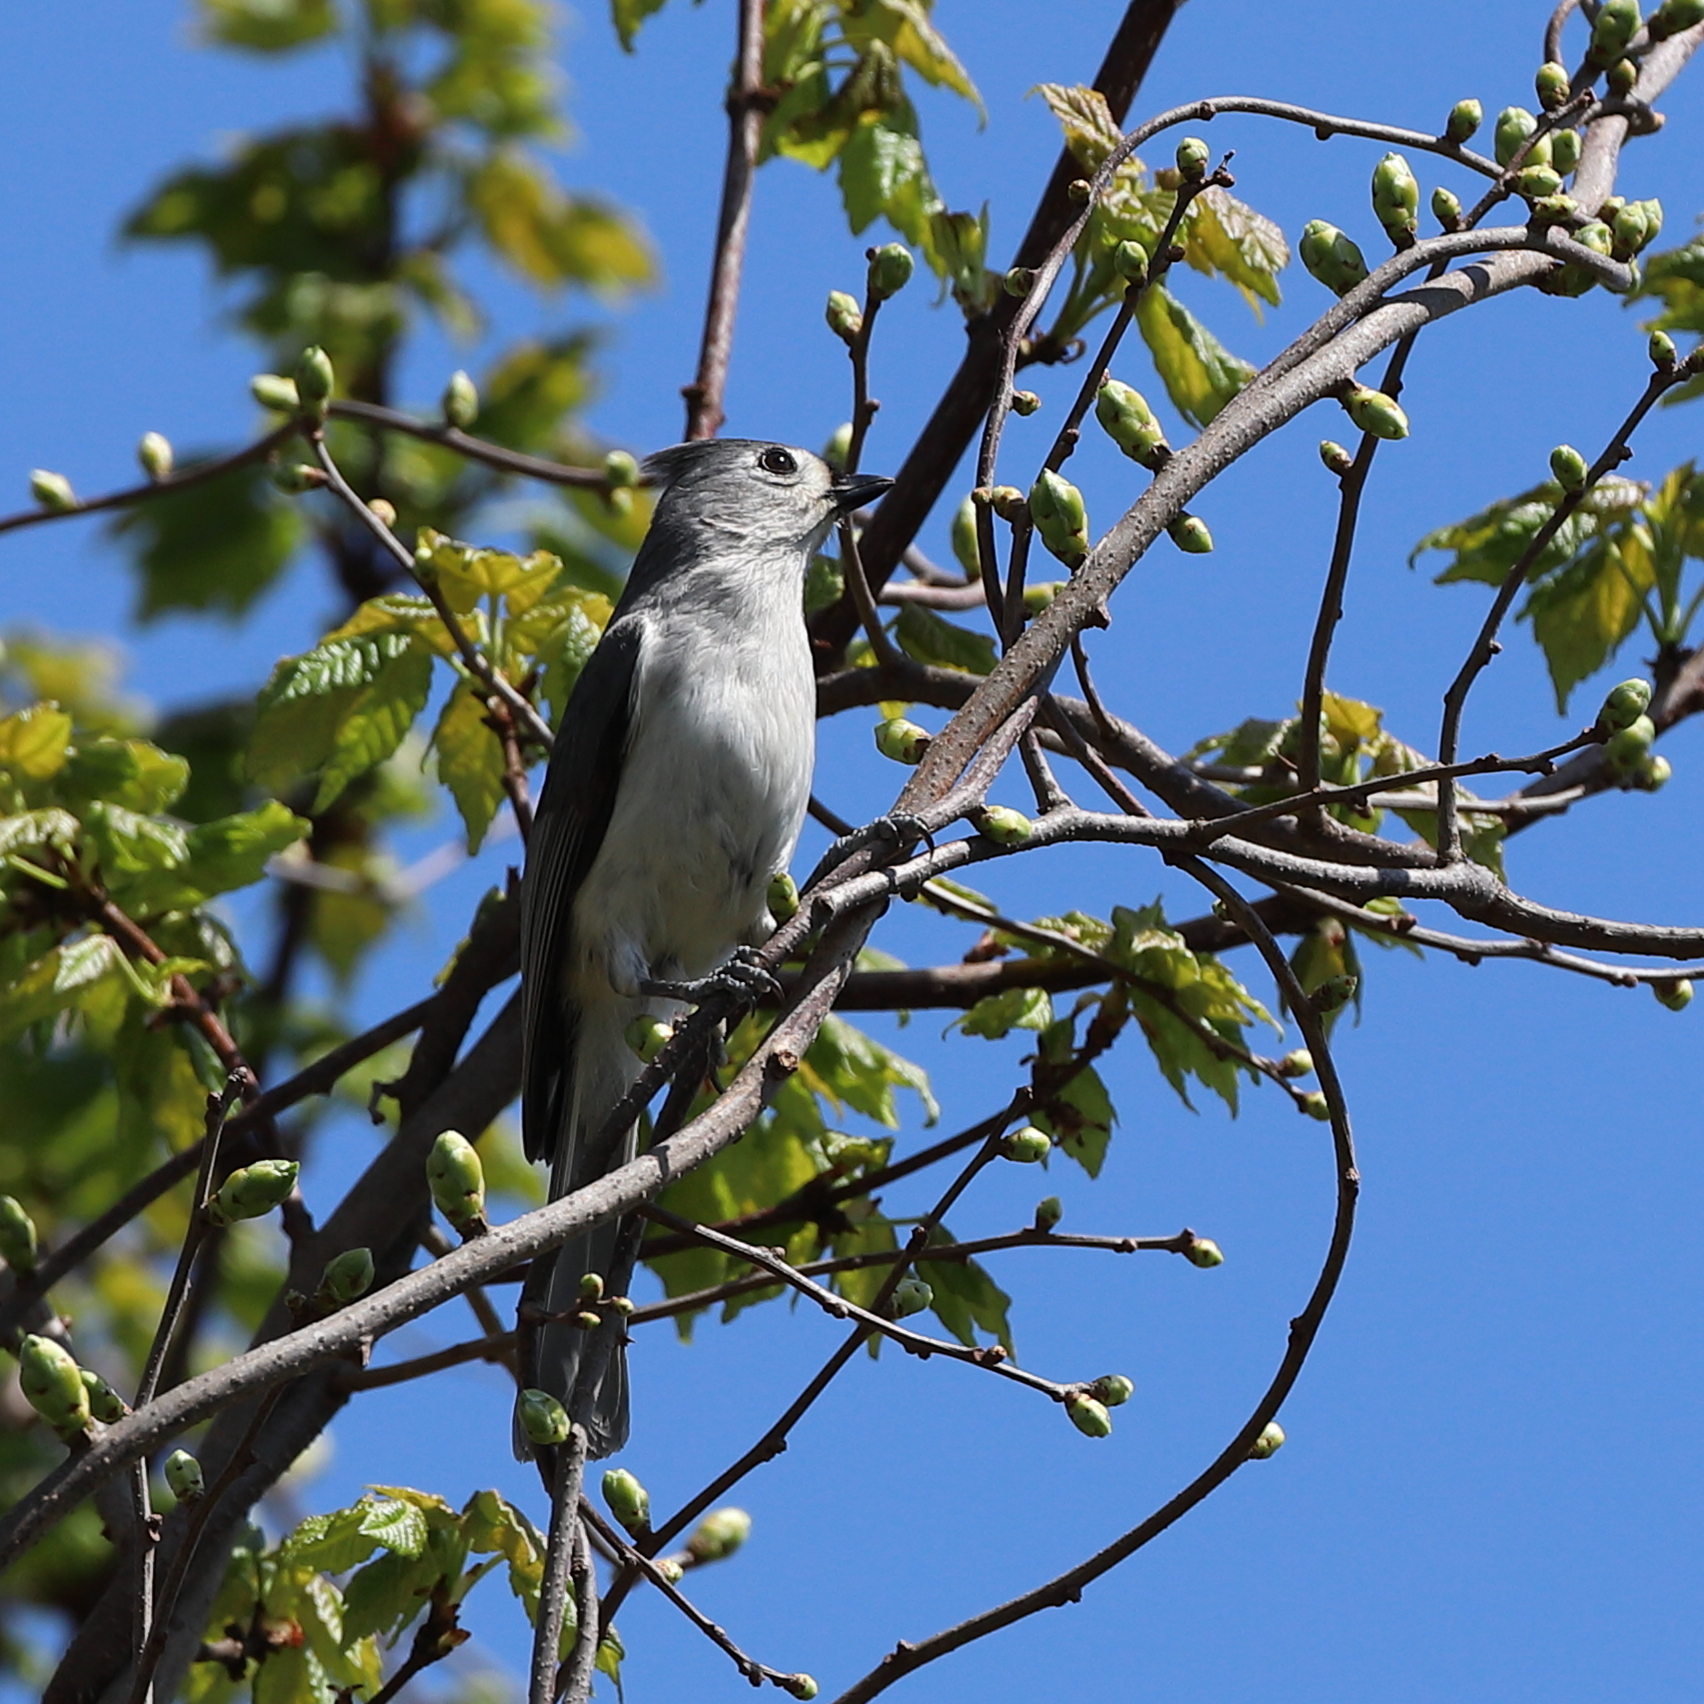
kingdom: Animalia
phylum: Chordata
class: Aves
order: Passeriformes
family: Paridae
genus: Baeolophus
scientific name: Baeolophus bicolor
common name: Tufted titmouse
